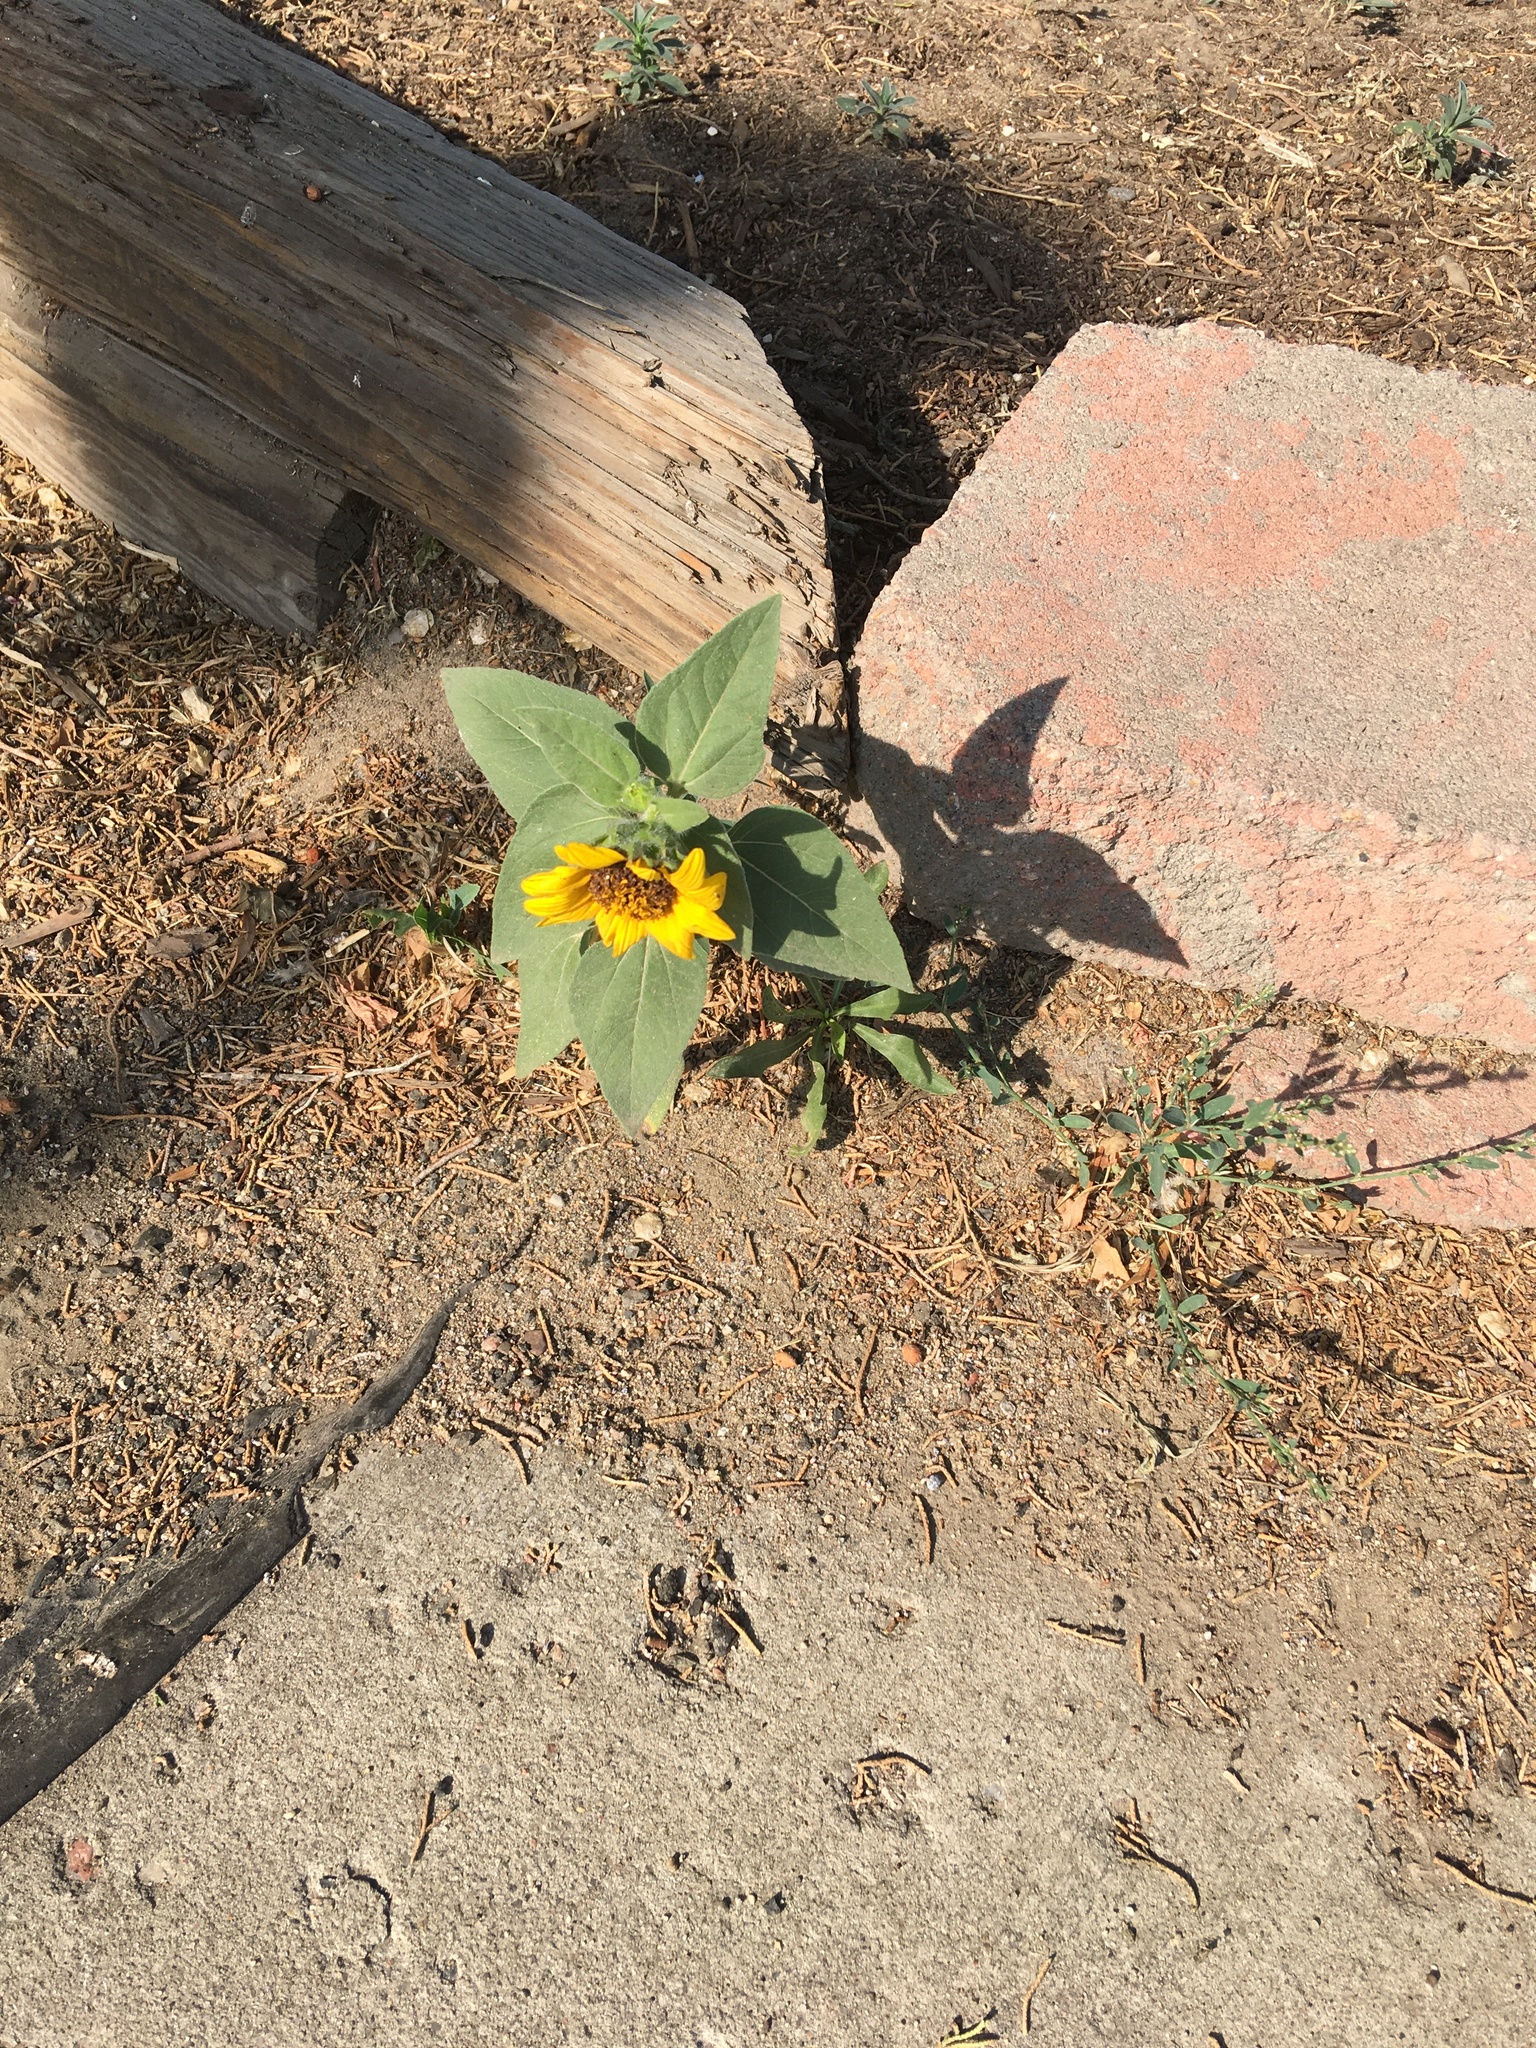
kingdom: Plantae
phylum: Tracheophyta
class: Magnoliopsida
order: Asterales
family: Asteraceae
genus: Helianthus
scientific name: Helianthus annuus
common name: Sunflower
